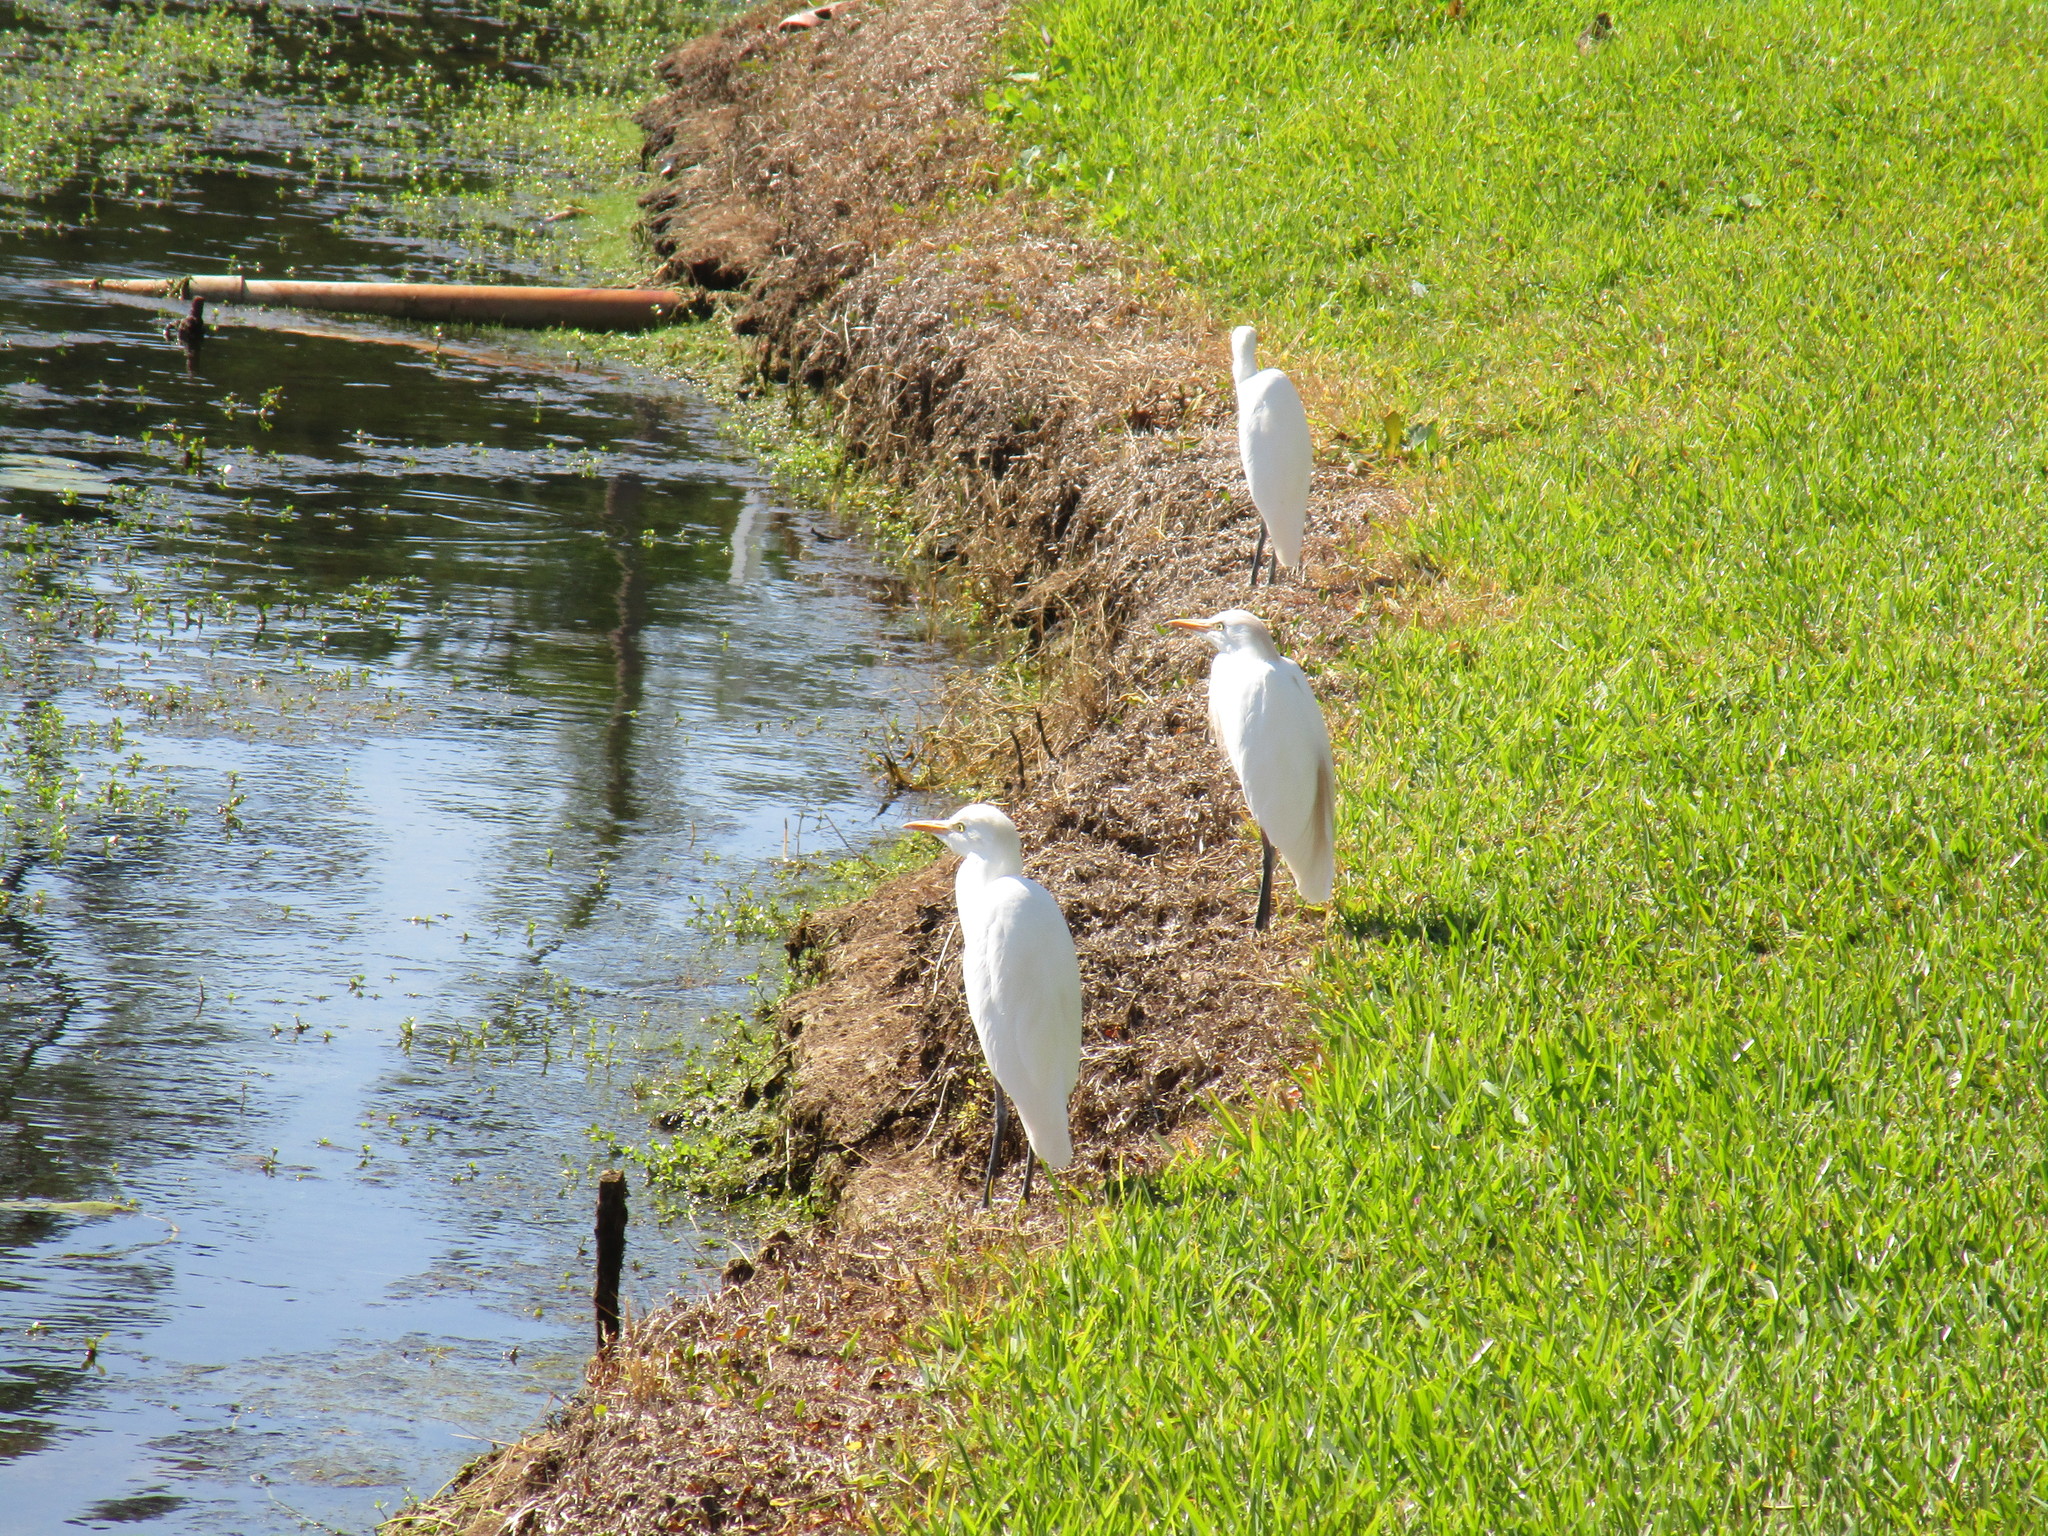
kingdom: Animalia
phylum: Chordata
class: Aves
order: Pelecaniformes
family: Ardeidae
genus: Bubulcus
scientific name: Bubulcus ibis
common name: Cattle egret
